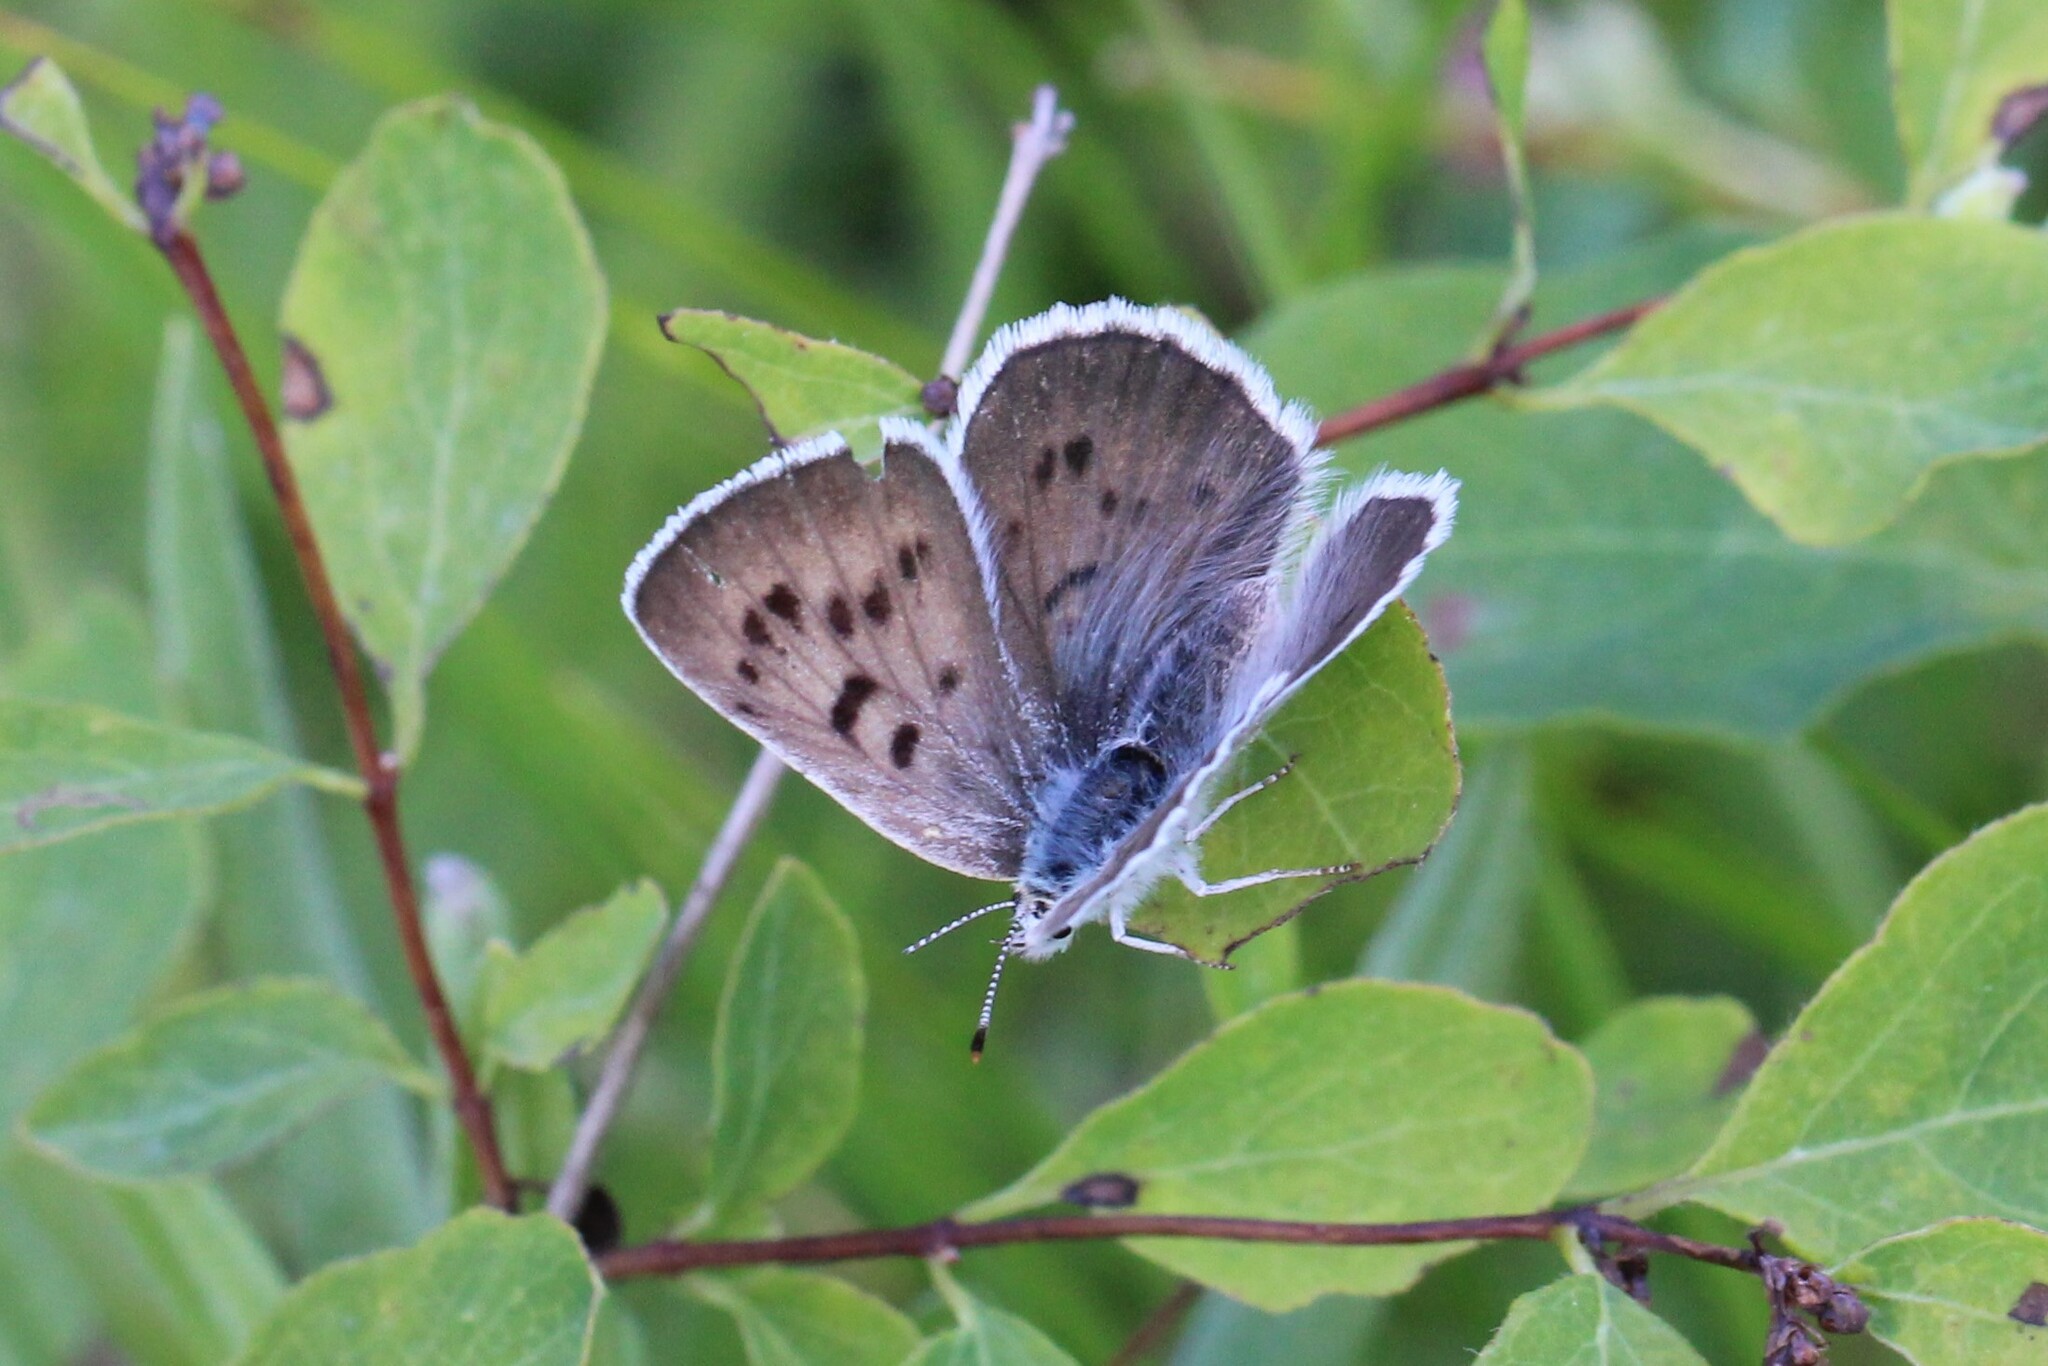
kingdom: Animalia
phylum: Arthropoda
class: Insecta
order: Lepidoptera
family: Lycaenidae
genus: Tharsalea
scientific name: Tharsalea heteronea
